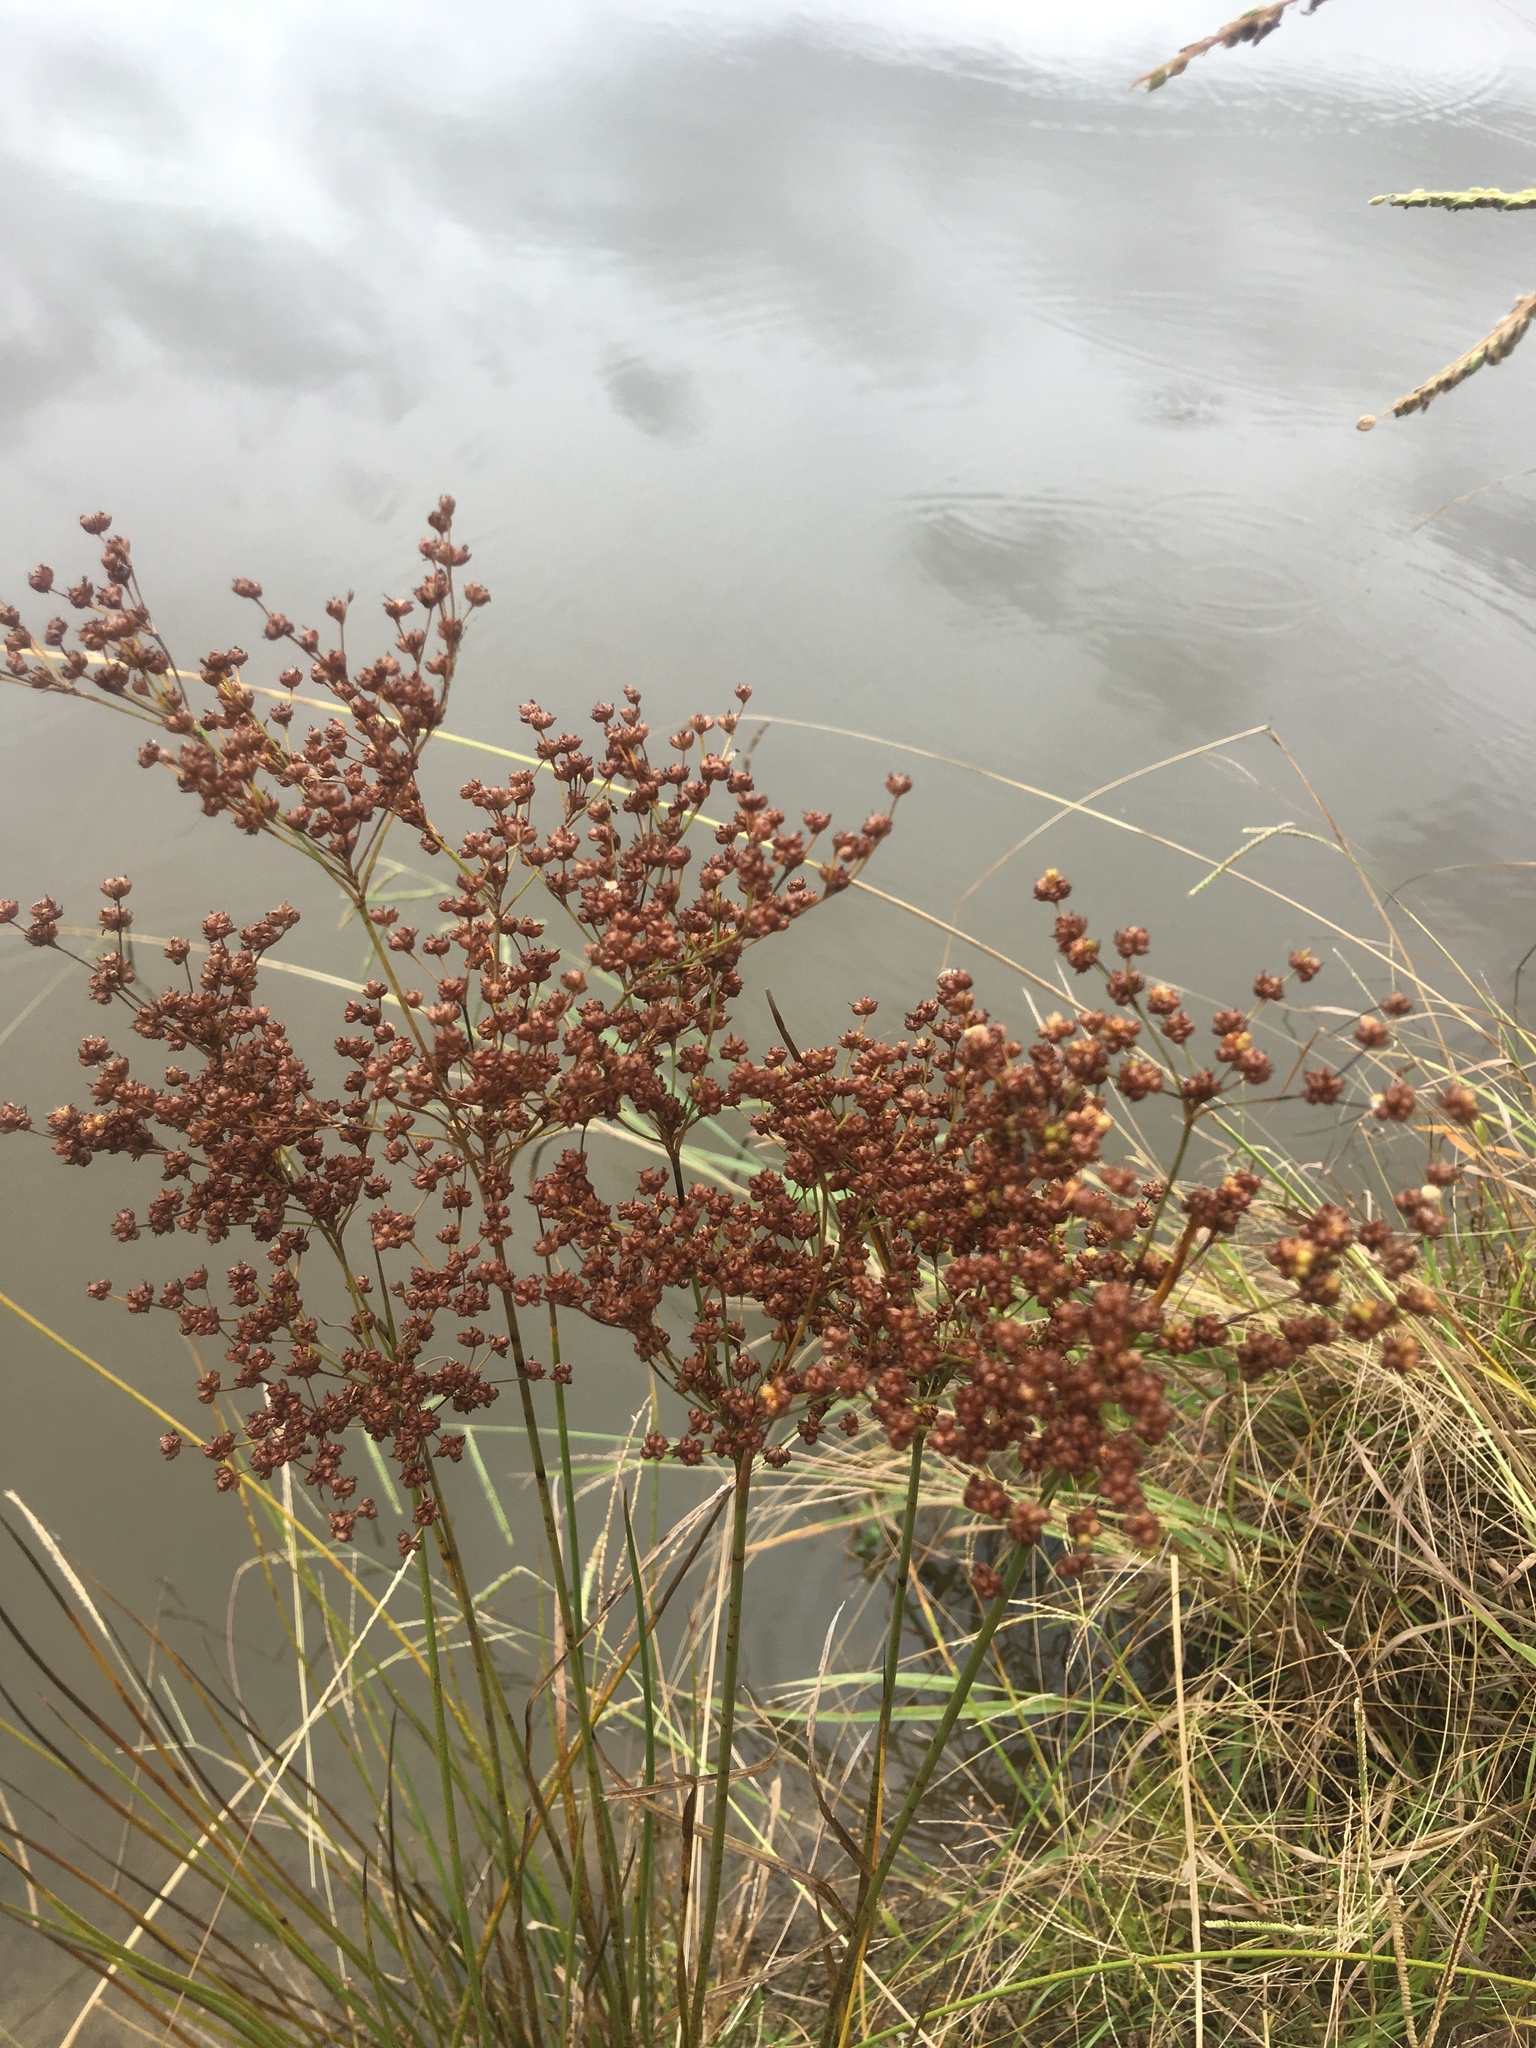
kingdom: Plantae
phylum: Tracheophyta
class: Liliopsida
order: Poales
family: Juncaceae
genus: Juncus
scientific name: Juncus biflorus
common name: Two-flowered rush
